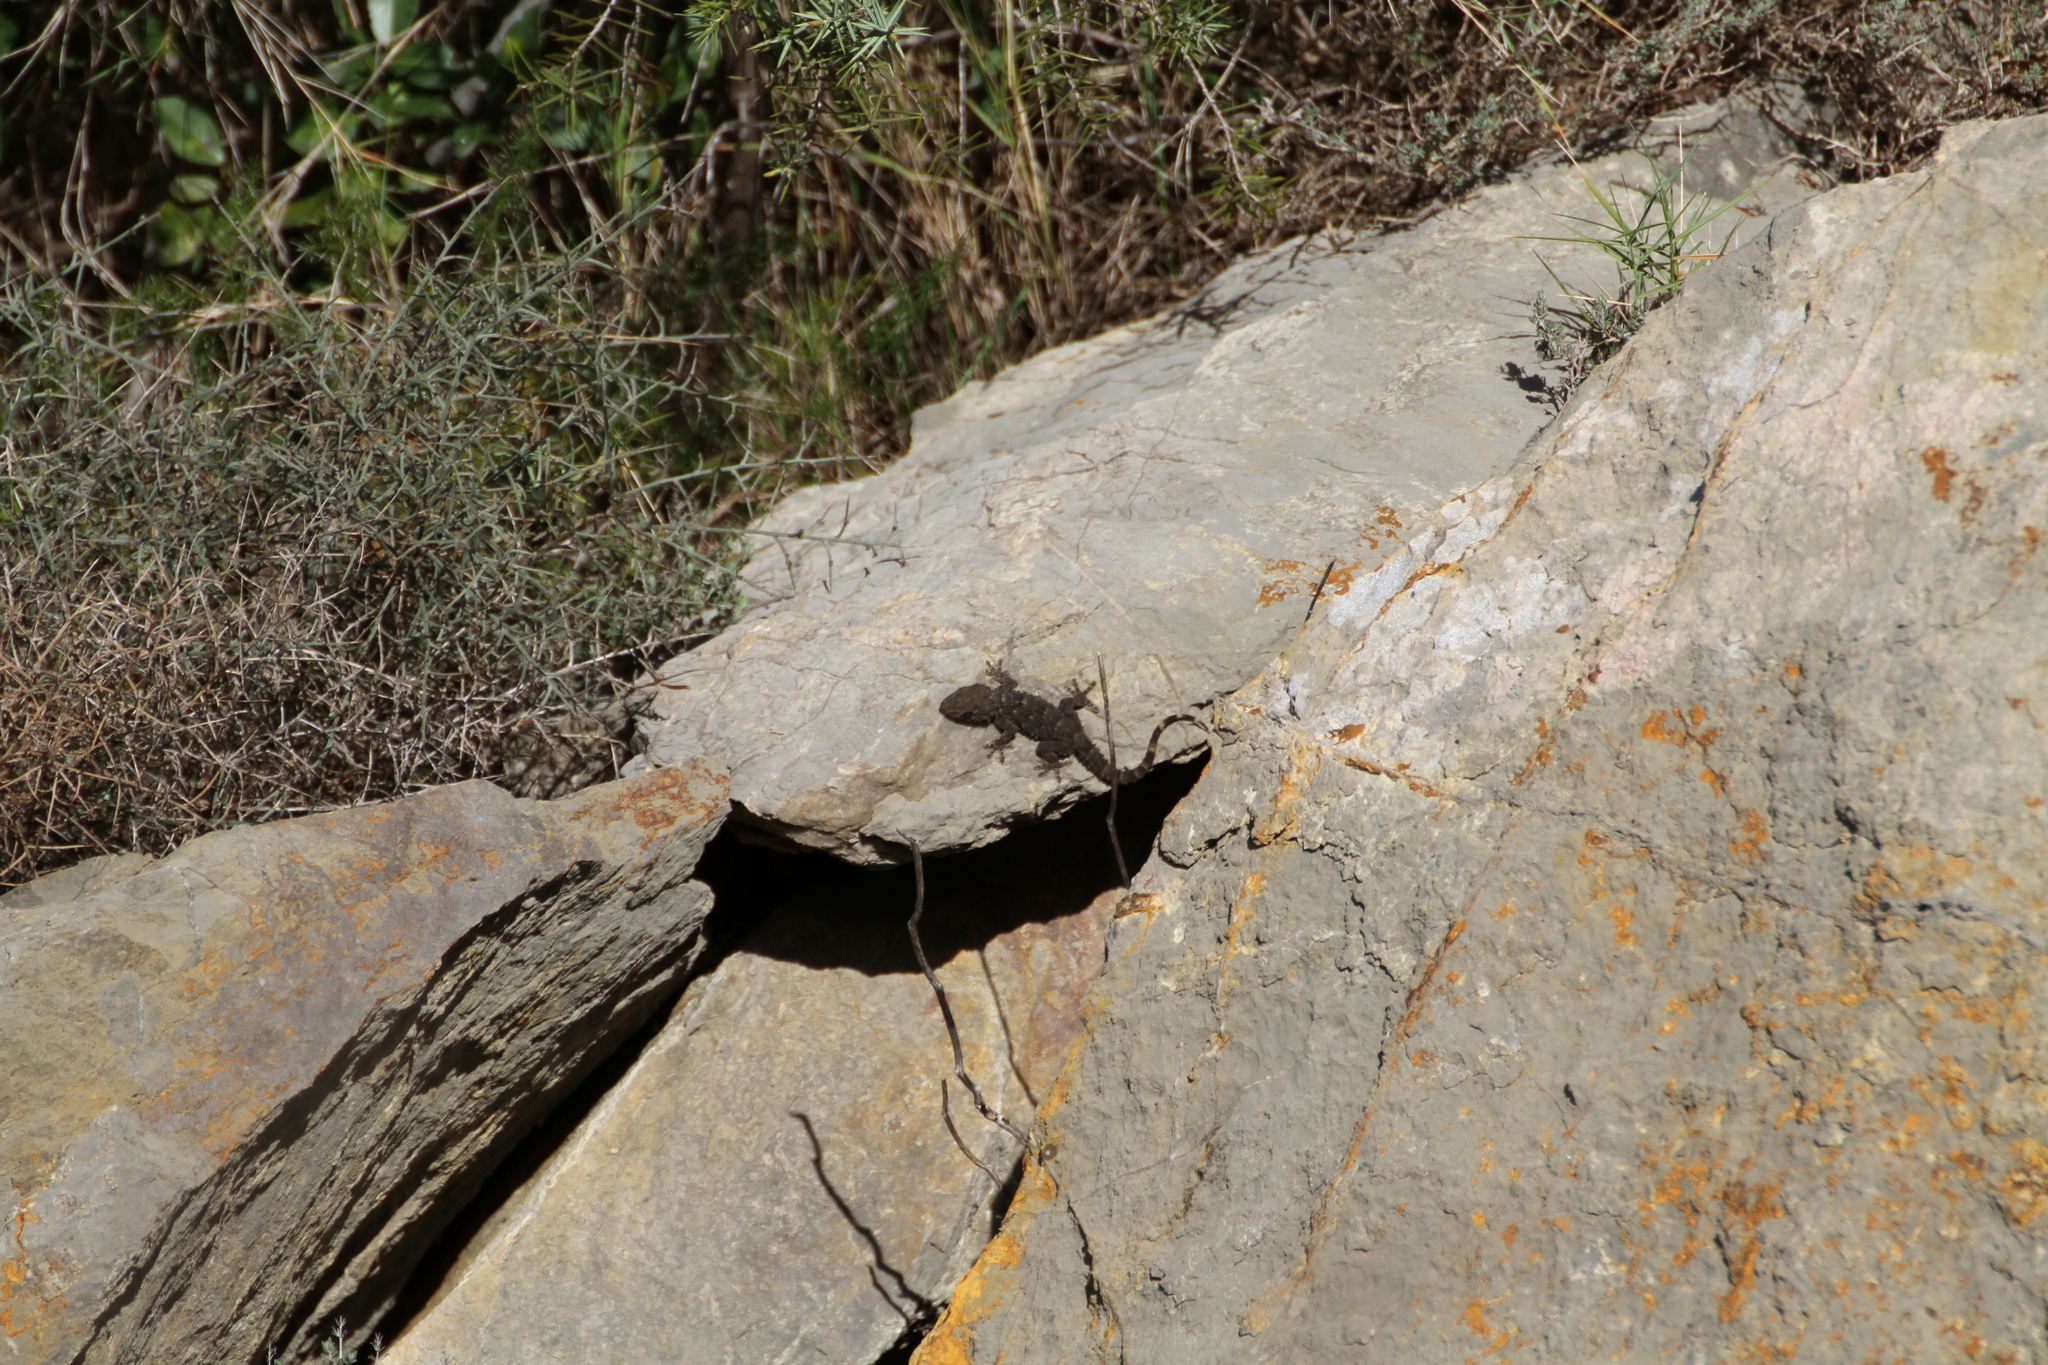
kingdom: Animalia
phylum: Chordata
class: Squamata
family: Phyllodactylidae
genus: Tarentola
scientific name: Tarentola mauritanica
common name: Moorish gecko
